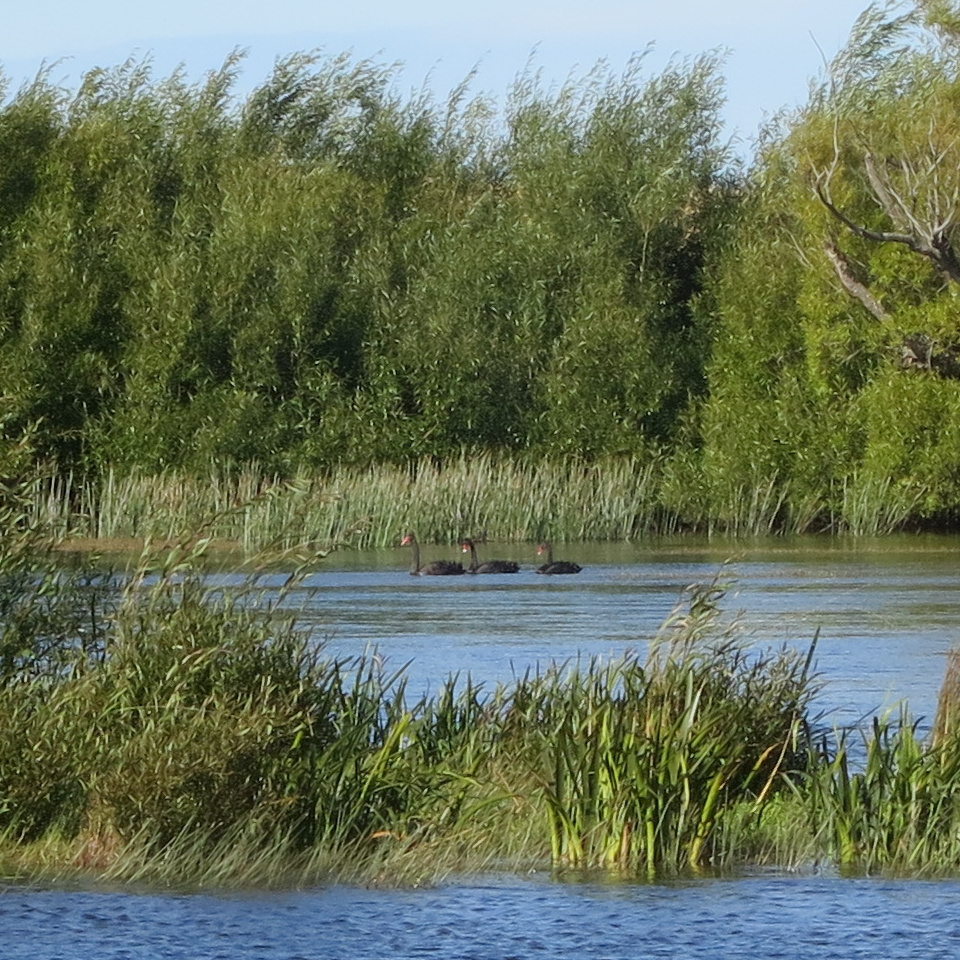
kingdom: Animalia
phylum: Chordata
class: Aves
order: Anseriformes
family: Anatidae
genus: Cygnus
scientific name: Cygnus atratus
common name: Black swan
